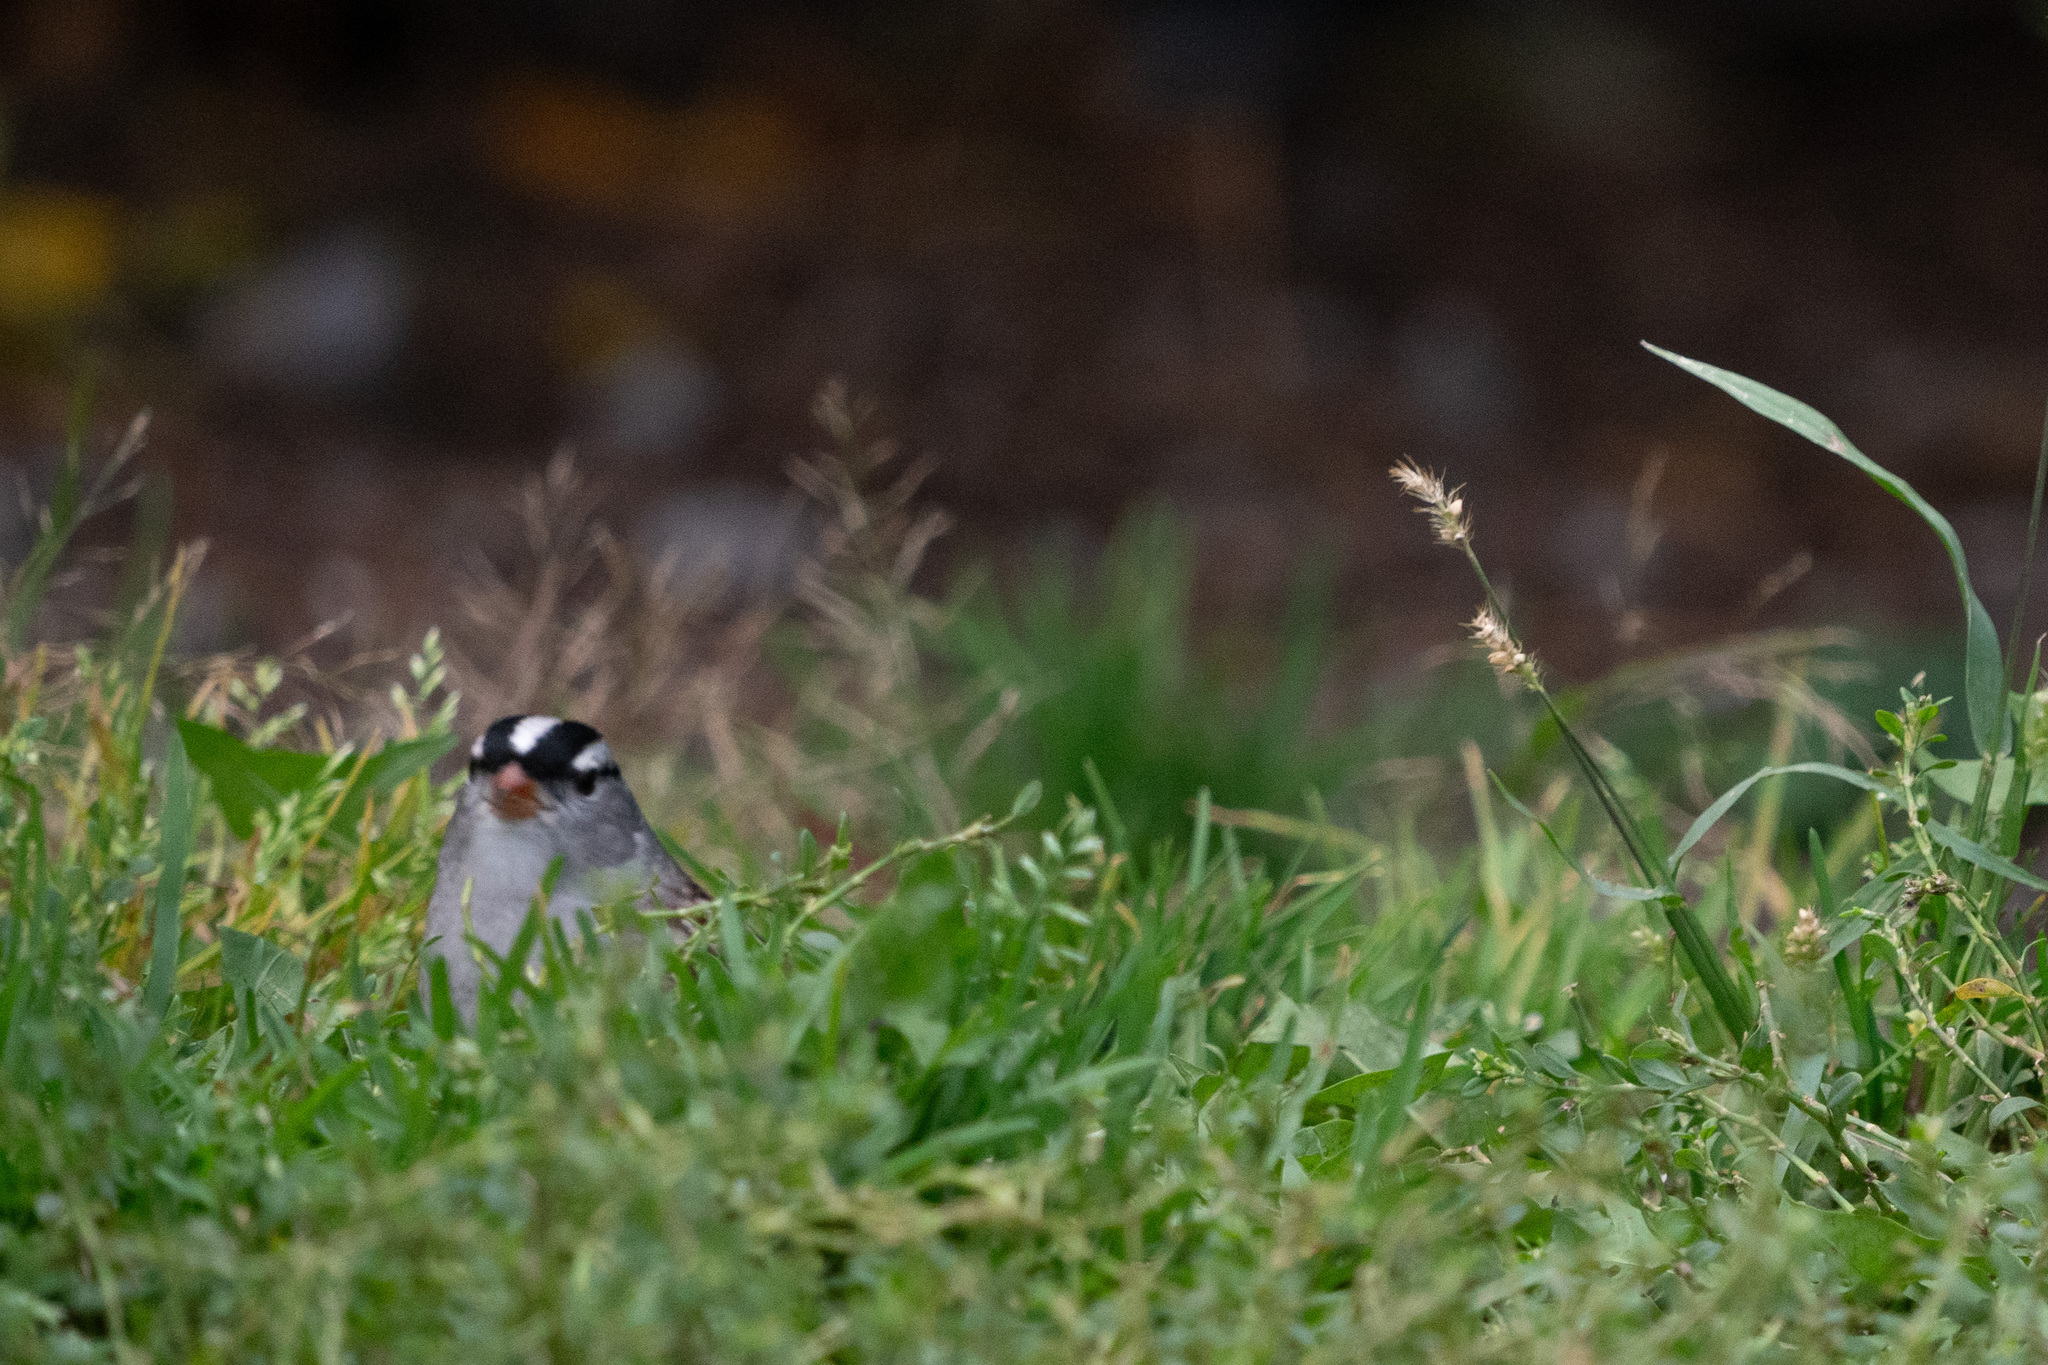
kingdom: Animalia
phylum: Chordata
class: Aves
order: Passeriformes
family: Passerellidae
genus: Zonotrichia
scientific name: Zonotrichia leucophrys
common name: White-crowned sparrow
